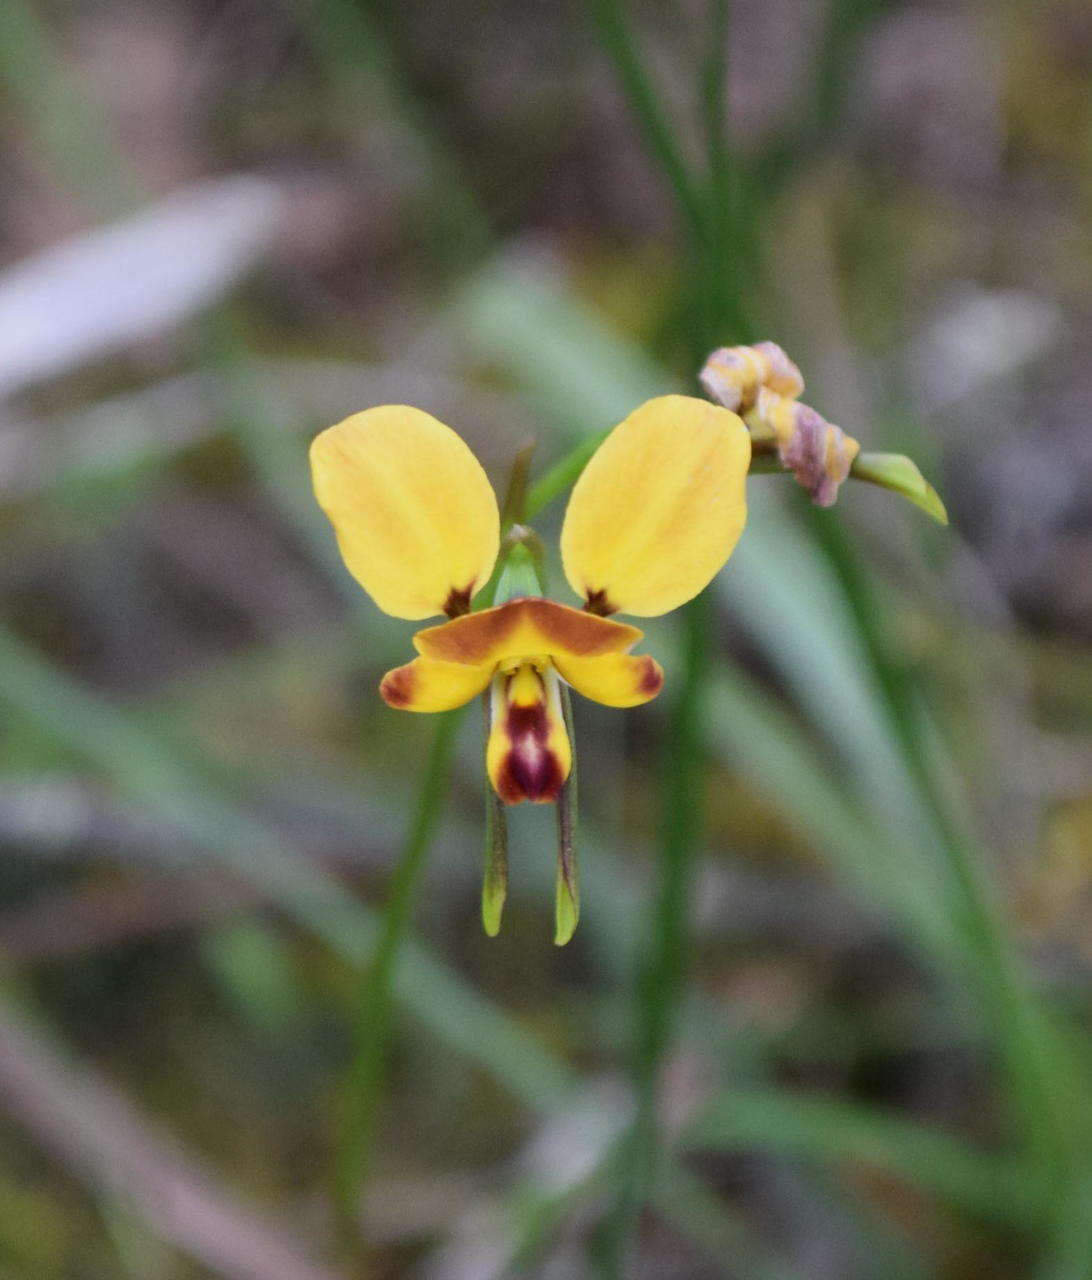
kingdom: Plantae
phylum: Tracheophyta
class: Liliopsida
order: Asparagales
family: Orchidaceae
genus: Diuris
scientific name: Diuris orientis
